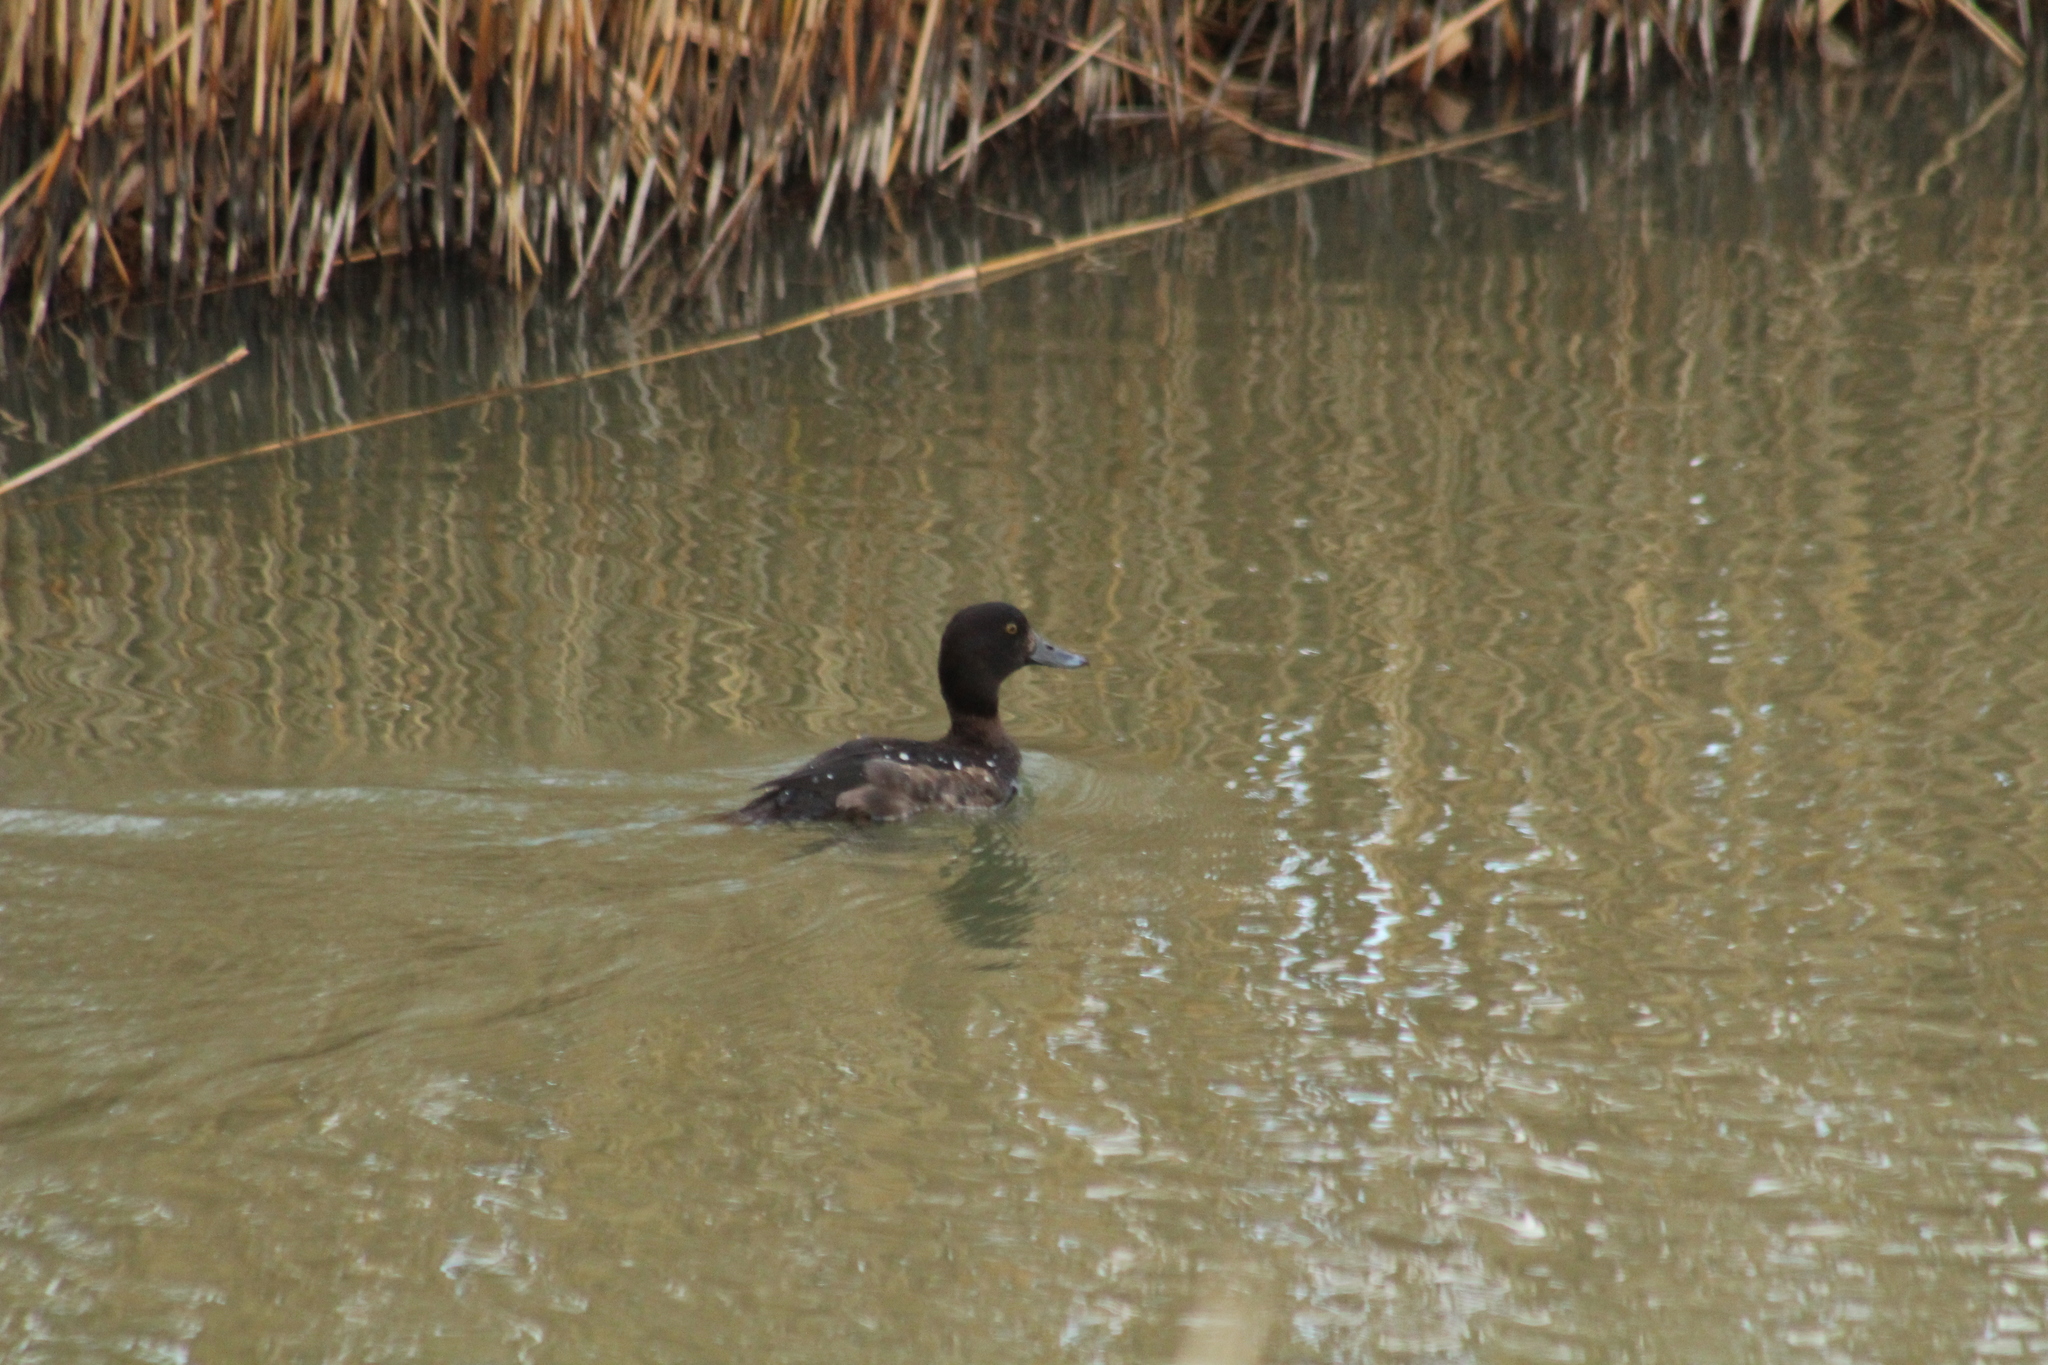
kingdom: Animalia
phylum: Chordata
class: Aves
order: Anseriformes
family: Anatidae
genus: Aythya
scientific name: Aythya fuligula
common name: Tufted duck
